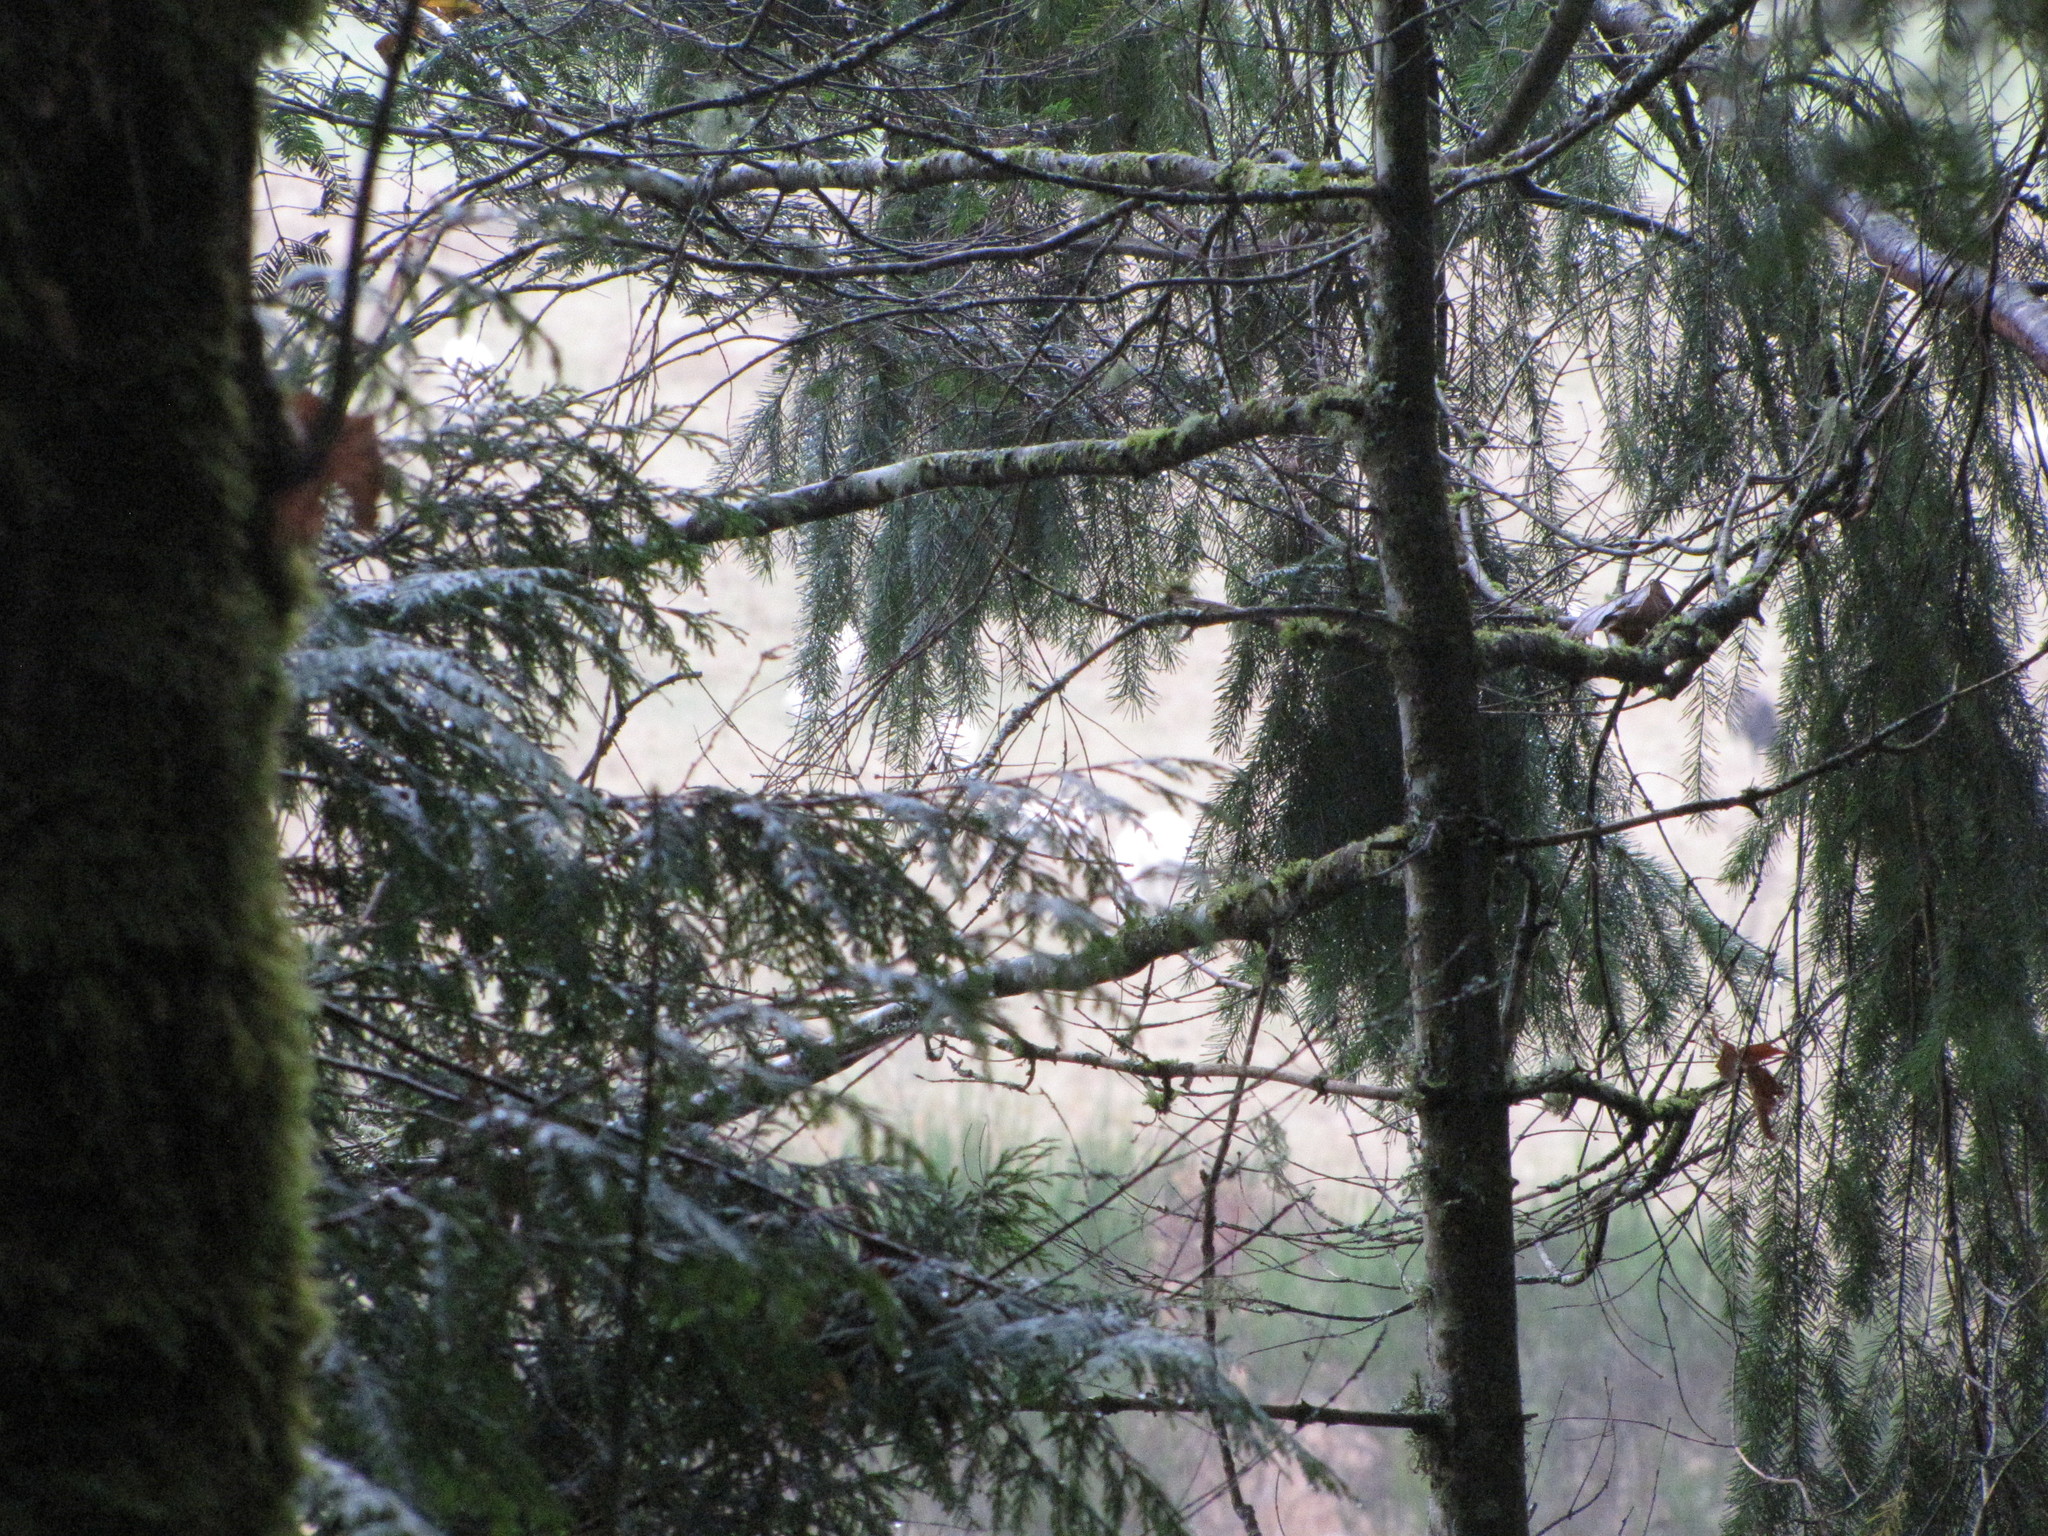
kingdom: Plantae
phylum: Tracheophyta
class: Pinopsida
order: Pinales
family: Cupressaceae
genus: Thuja
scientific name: Thuja plicata
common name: Western red-cedar
